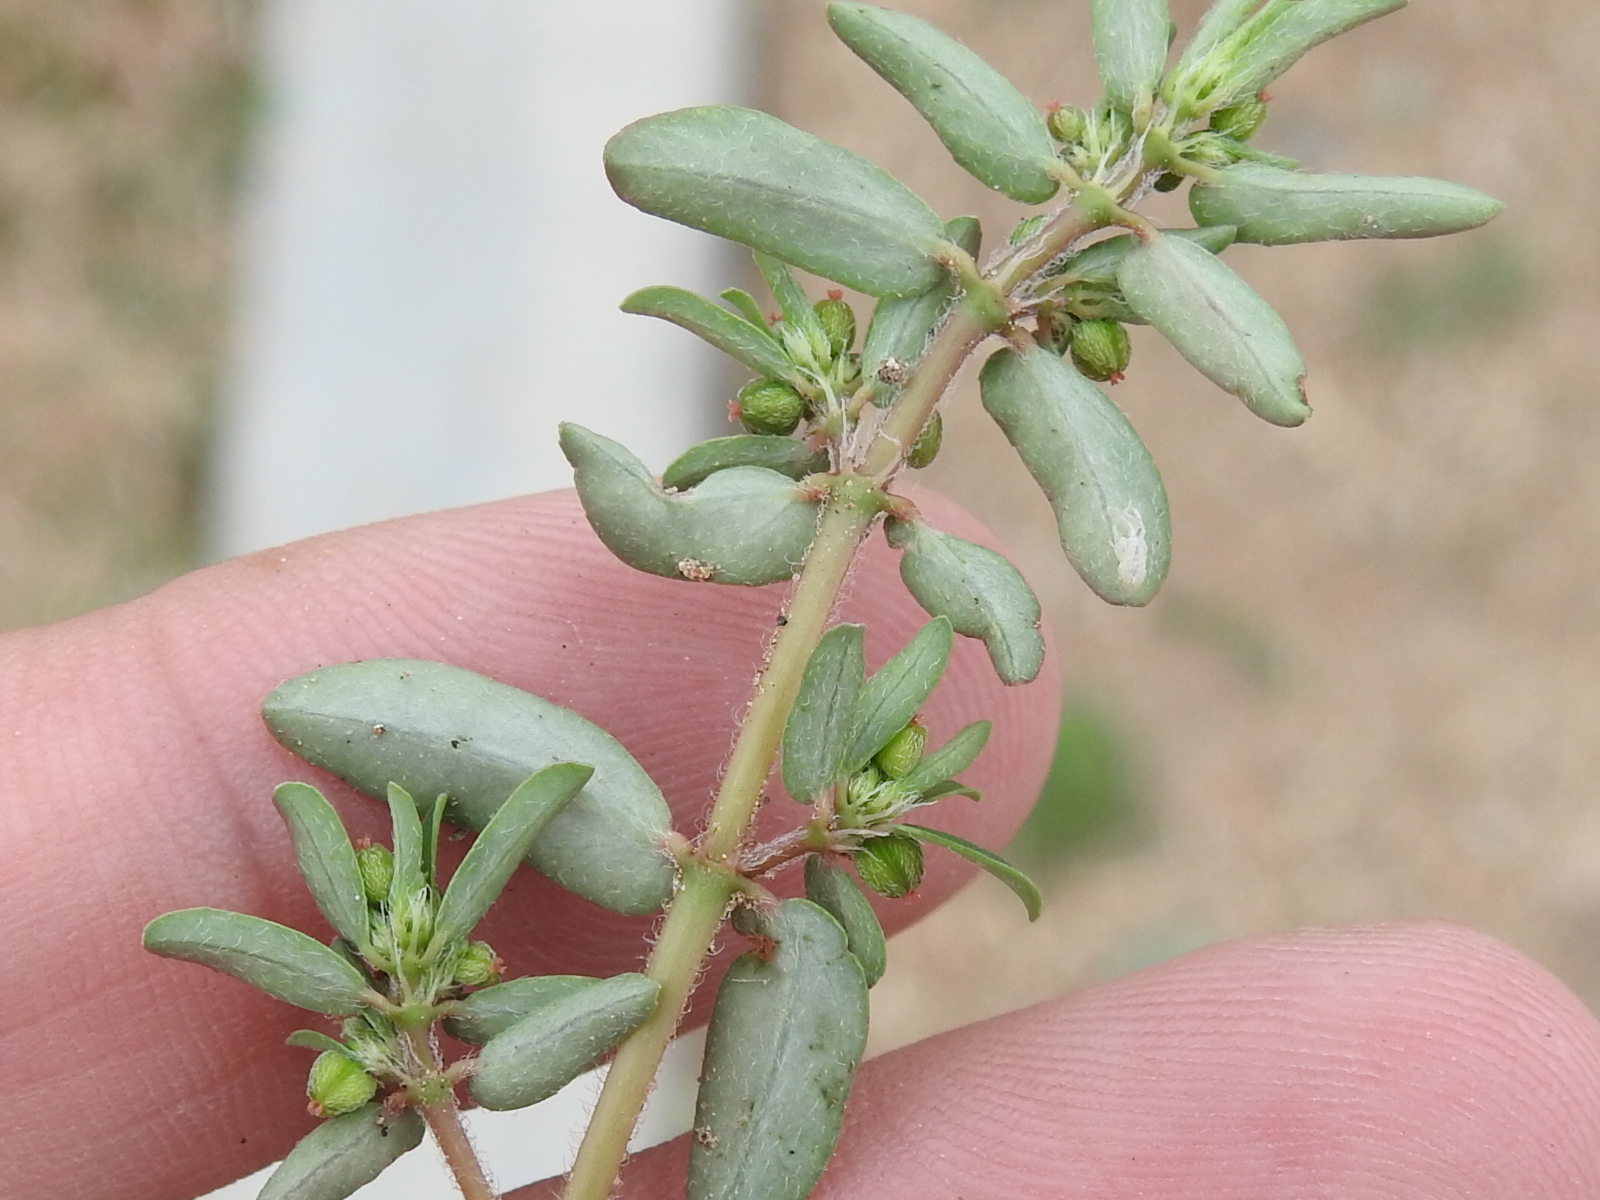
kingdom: Plantae
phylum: Tracheophyta
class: Magnoliopsida
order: Malpighiales
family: Euphorbiaceae
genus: Euphorbia
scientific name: Euphorbia maculata
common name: Spotted spurge
